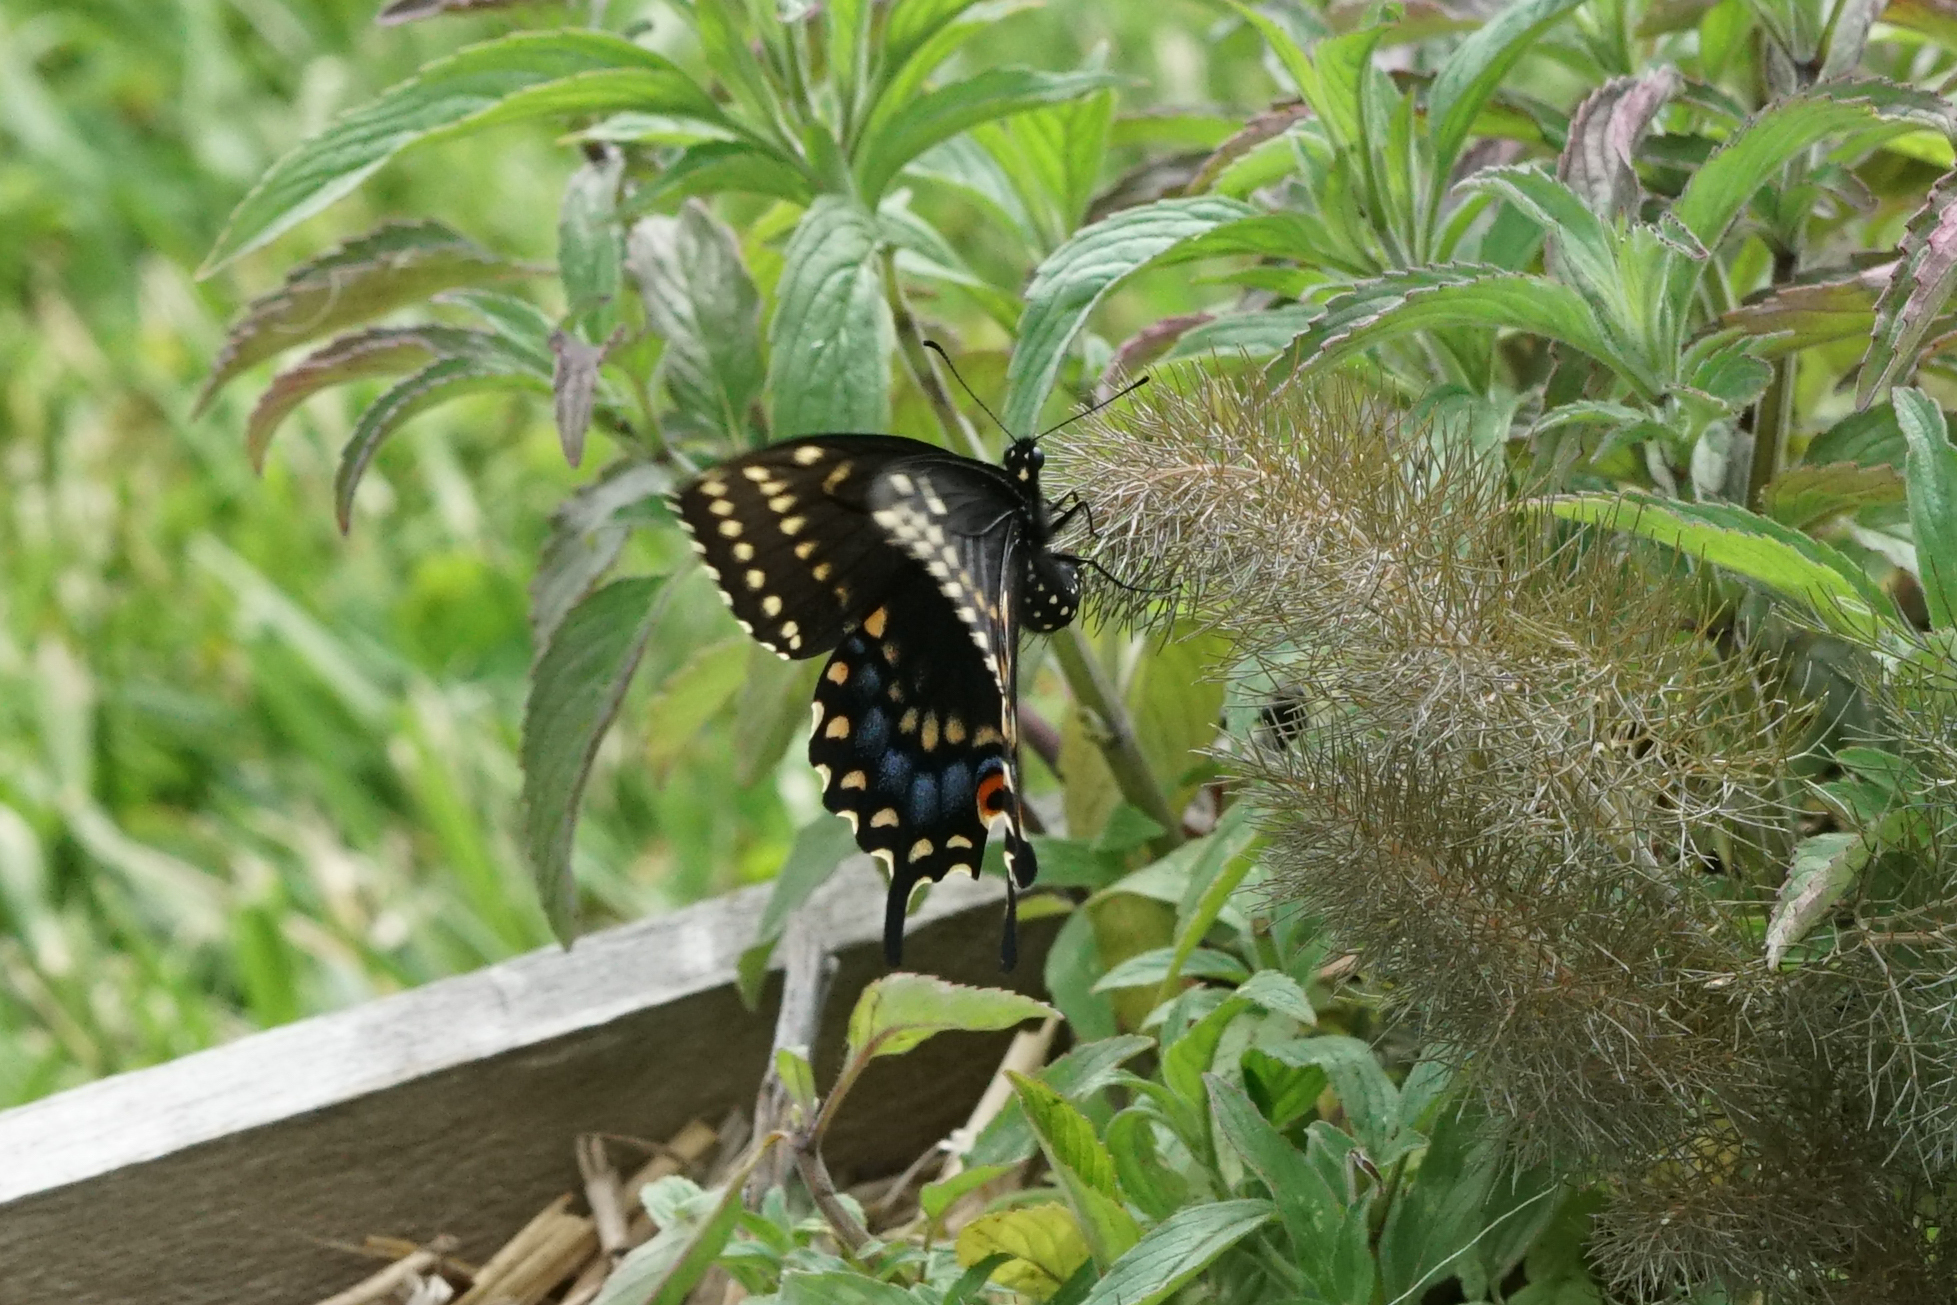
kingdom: Animalia
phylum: Arthropoda
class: Insecta
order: Lepidoptera
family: Papilionidae
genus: Papilio
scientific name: Papilio polyxenes
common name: Black swallowtail
